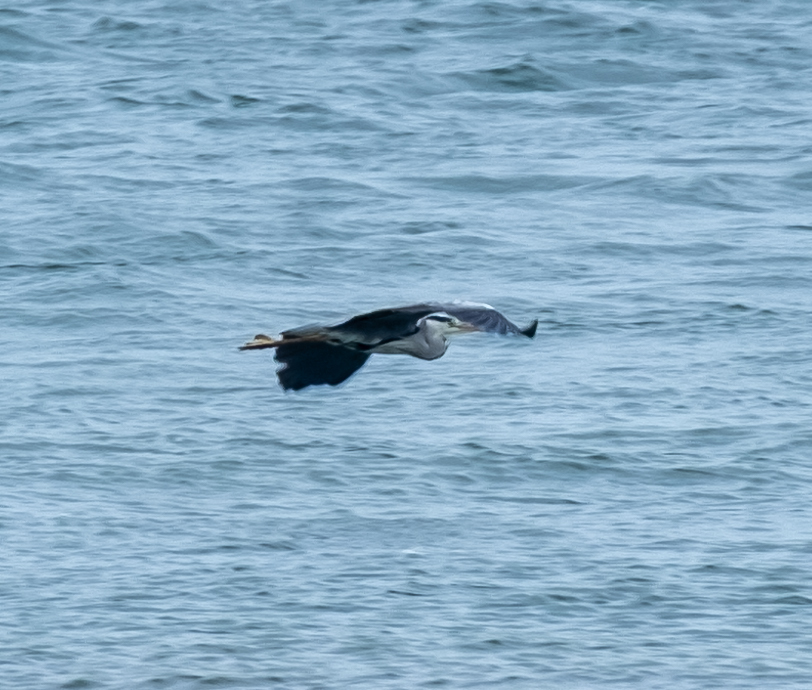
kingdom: Animalia
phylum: Chordata
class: Aves
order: Pelecaniformes
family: Ardeidae
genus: Ardea
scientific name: Ardea cinerea
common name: Grey heron
